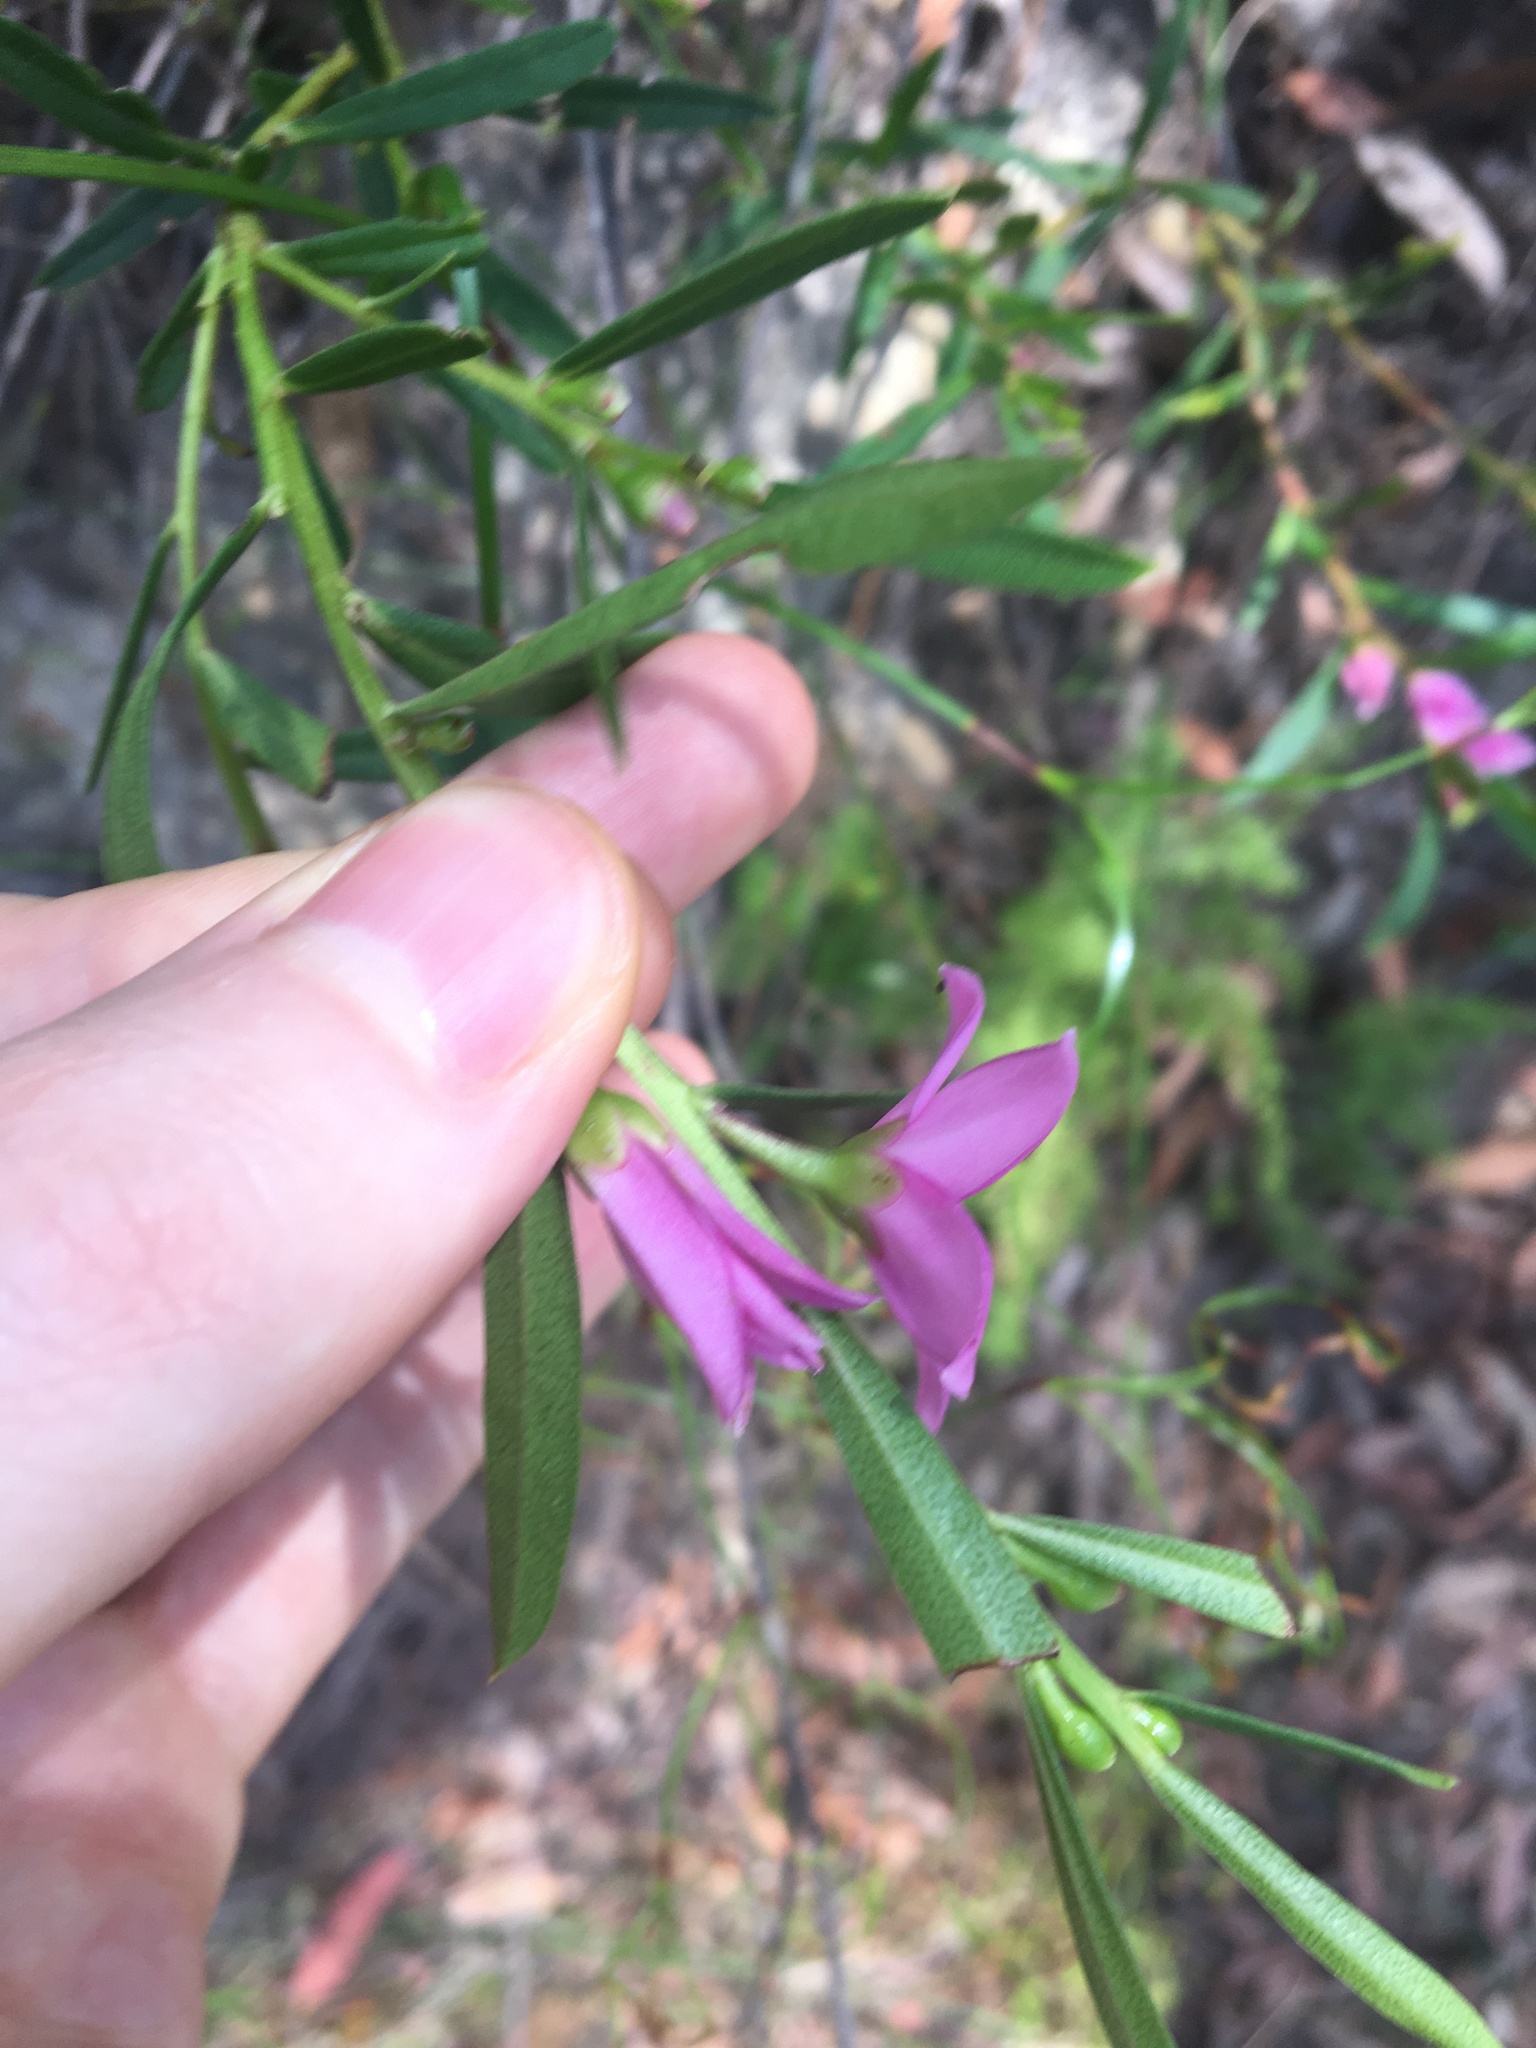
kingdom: Plantae
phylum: Tracheophyta
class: Magnoliopsida
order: Sapindales
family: Rutaceae
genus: Crowea
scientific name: Crowea saligna
